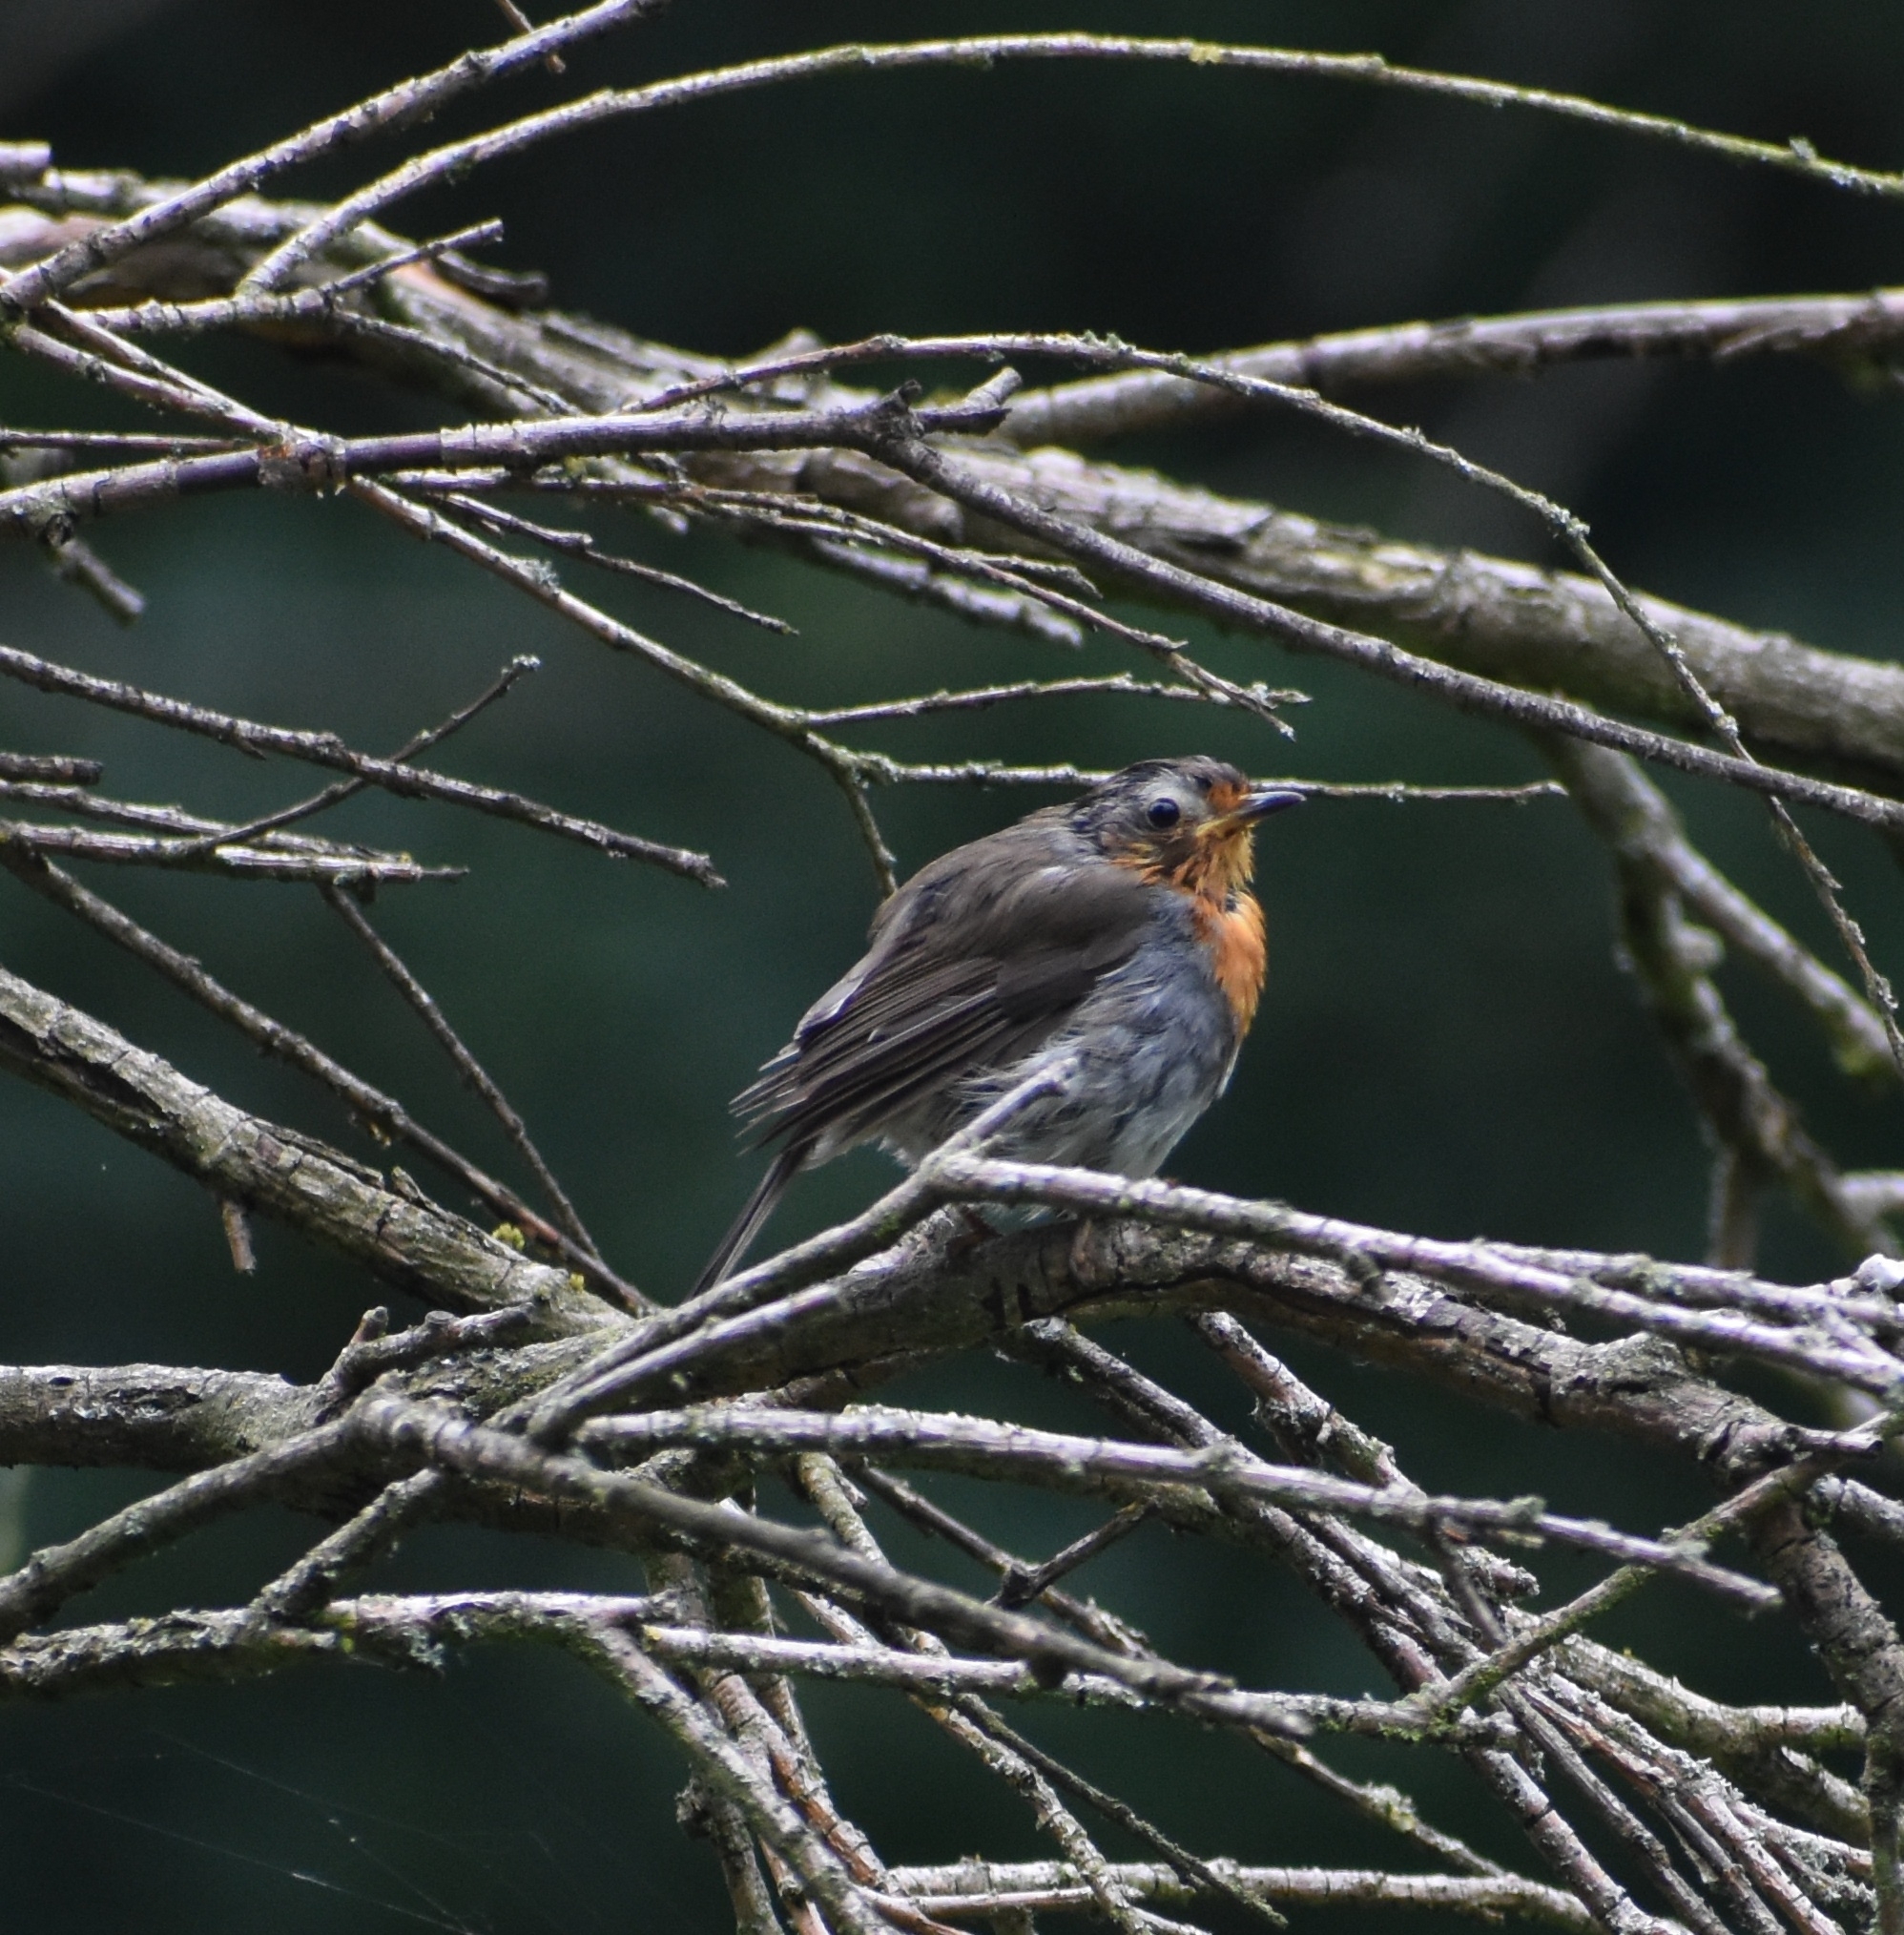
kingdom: Animalia
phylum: Chordata
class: Aves
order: Passeriformes
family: Muscicapidae
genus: Erithacus
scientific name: Erithacus rubecula
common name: European robin
